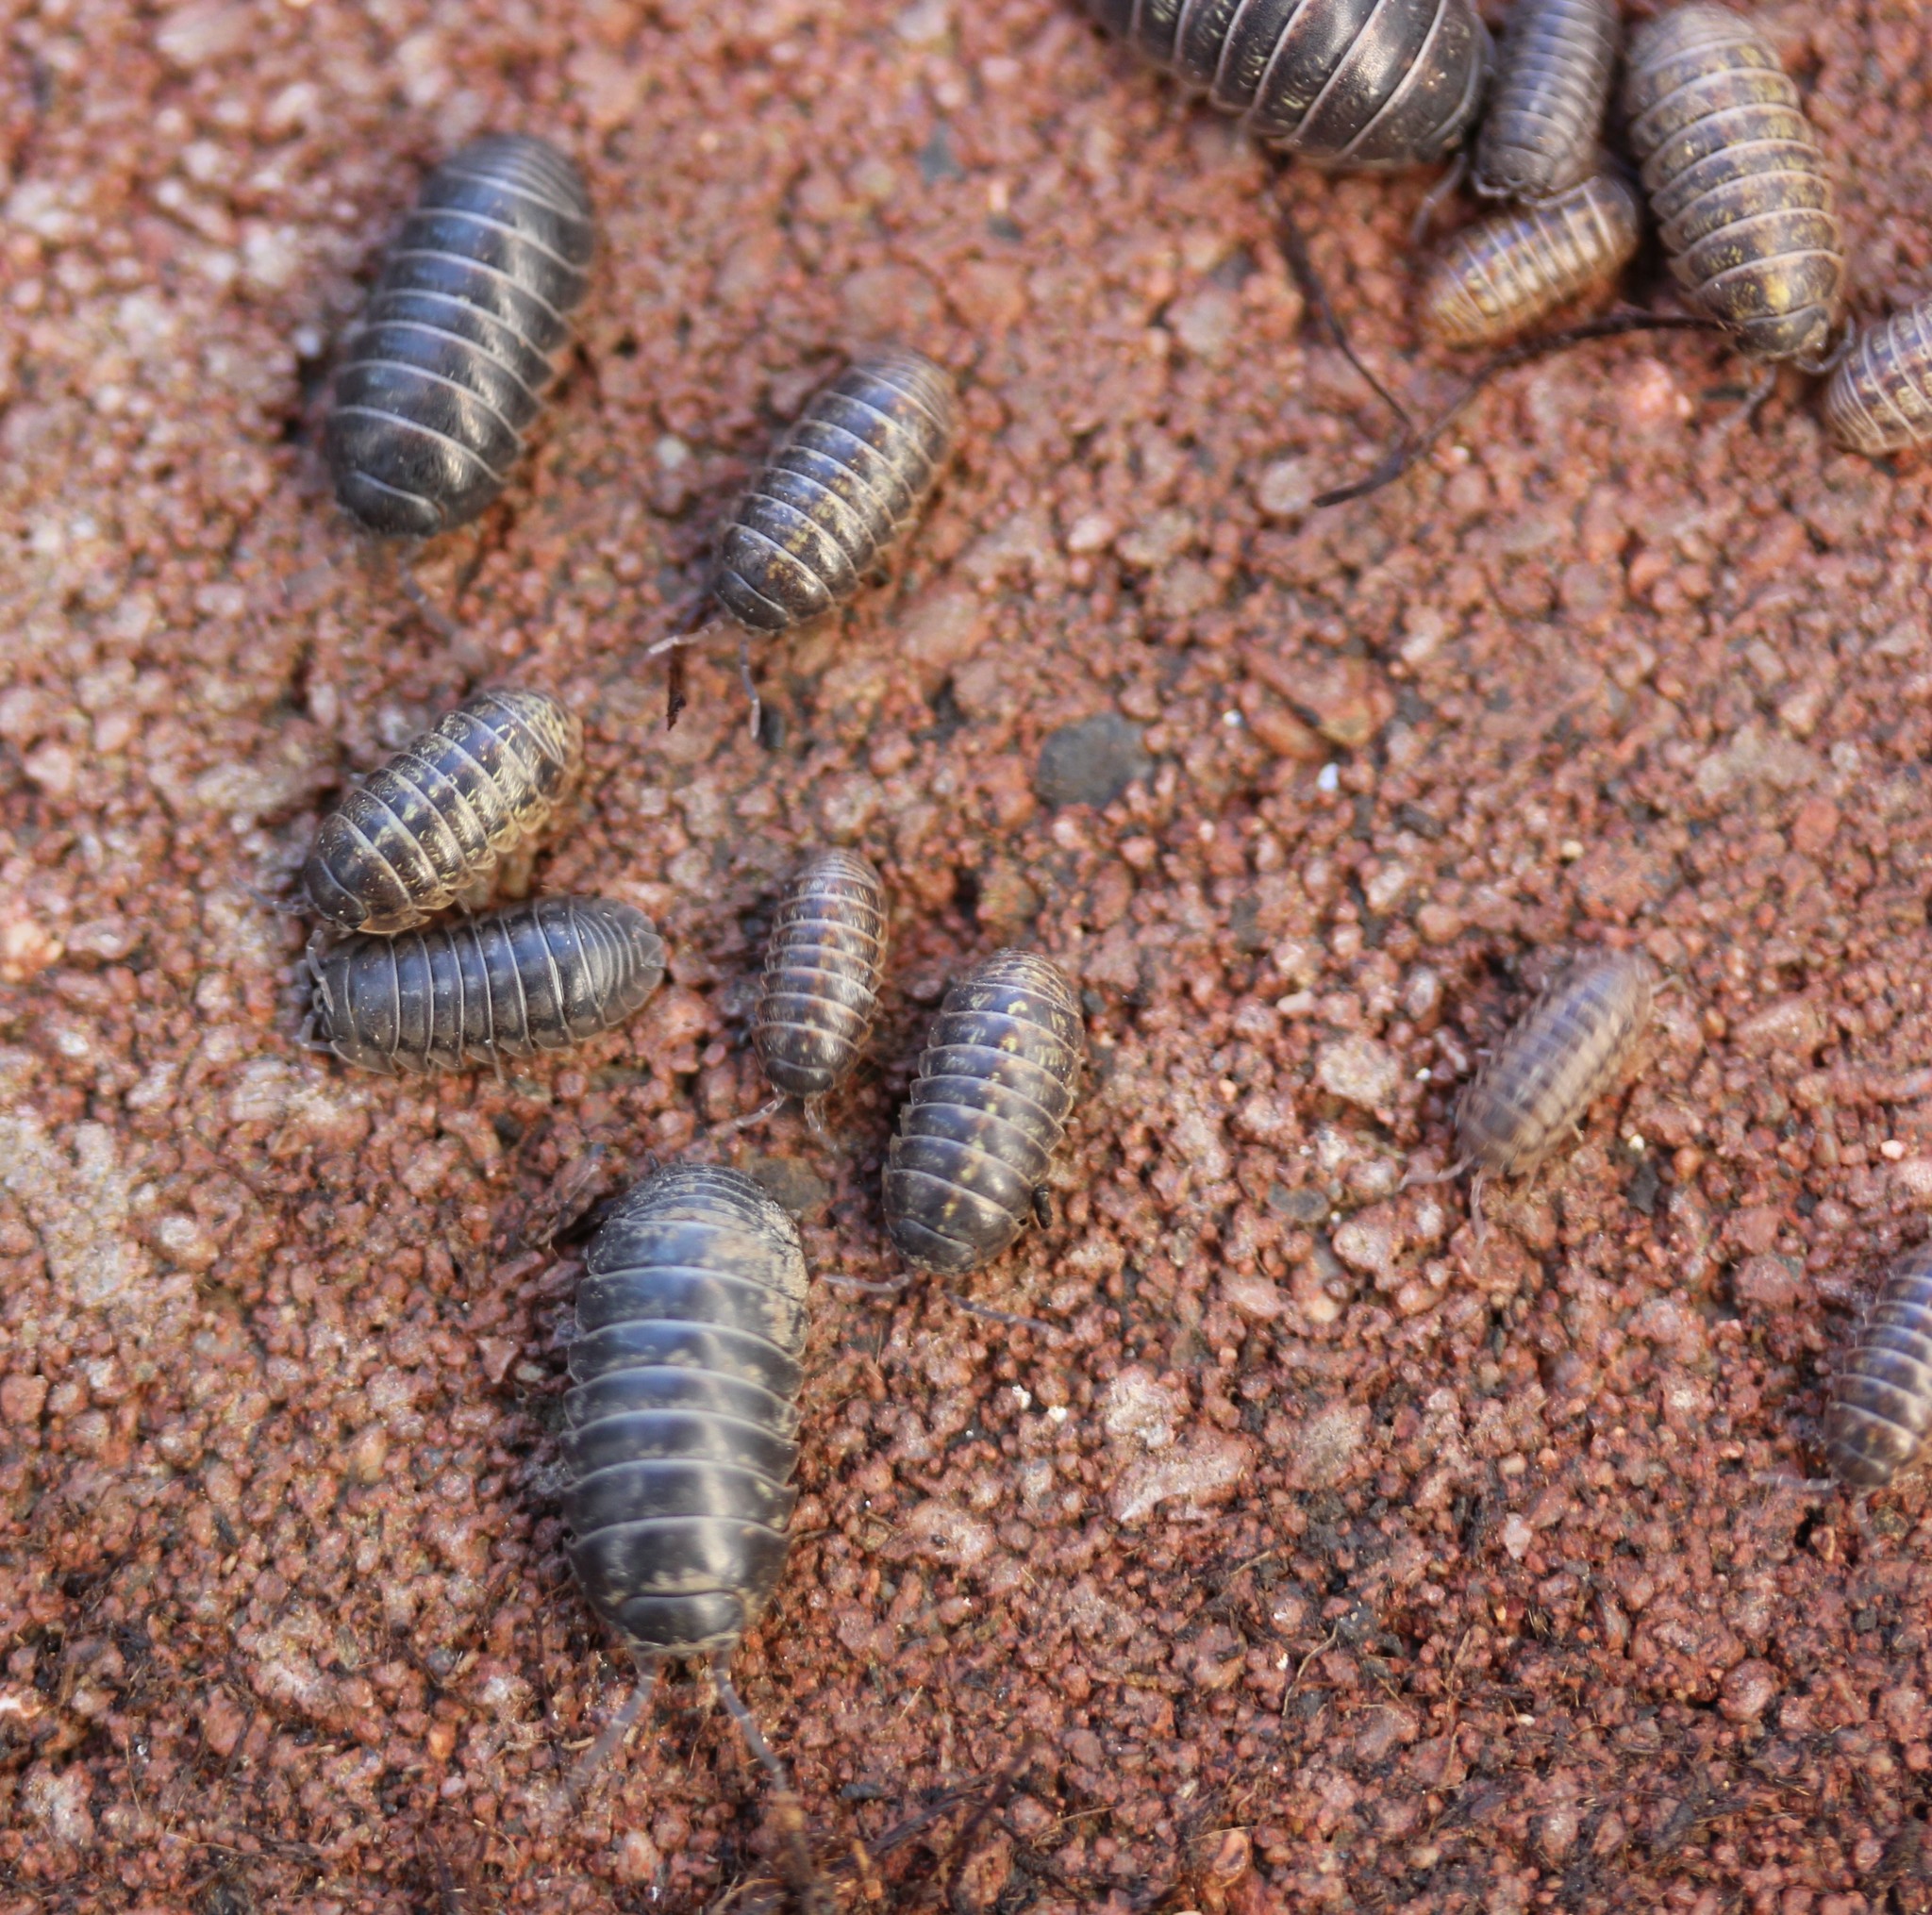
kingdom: Animalia
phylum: Arthropoda
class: Malacostraca
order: Isopoda
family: Armadillidiidae
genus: Armadillidium
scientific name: Armadillidium nasatum
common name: Isopod
